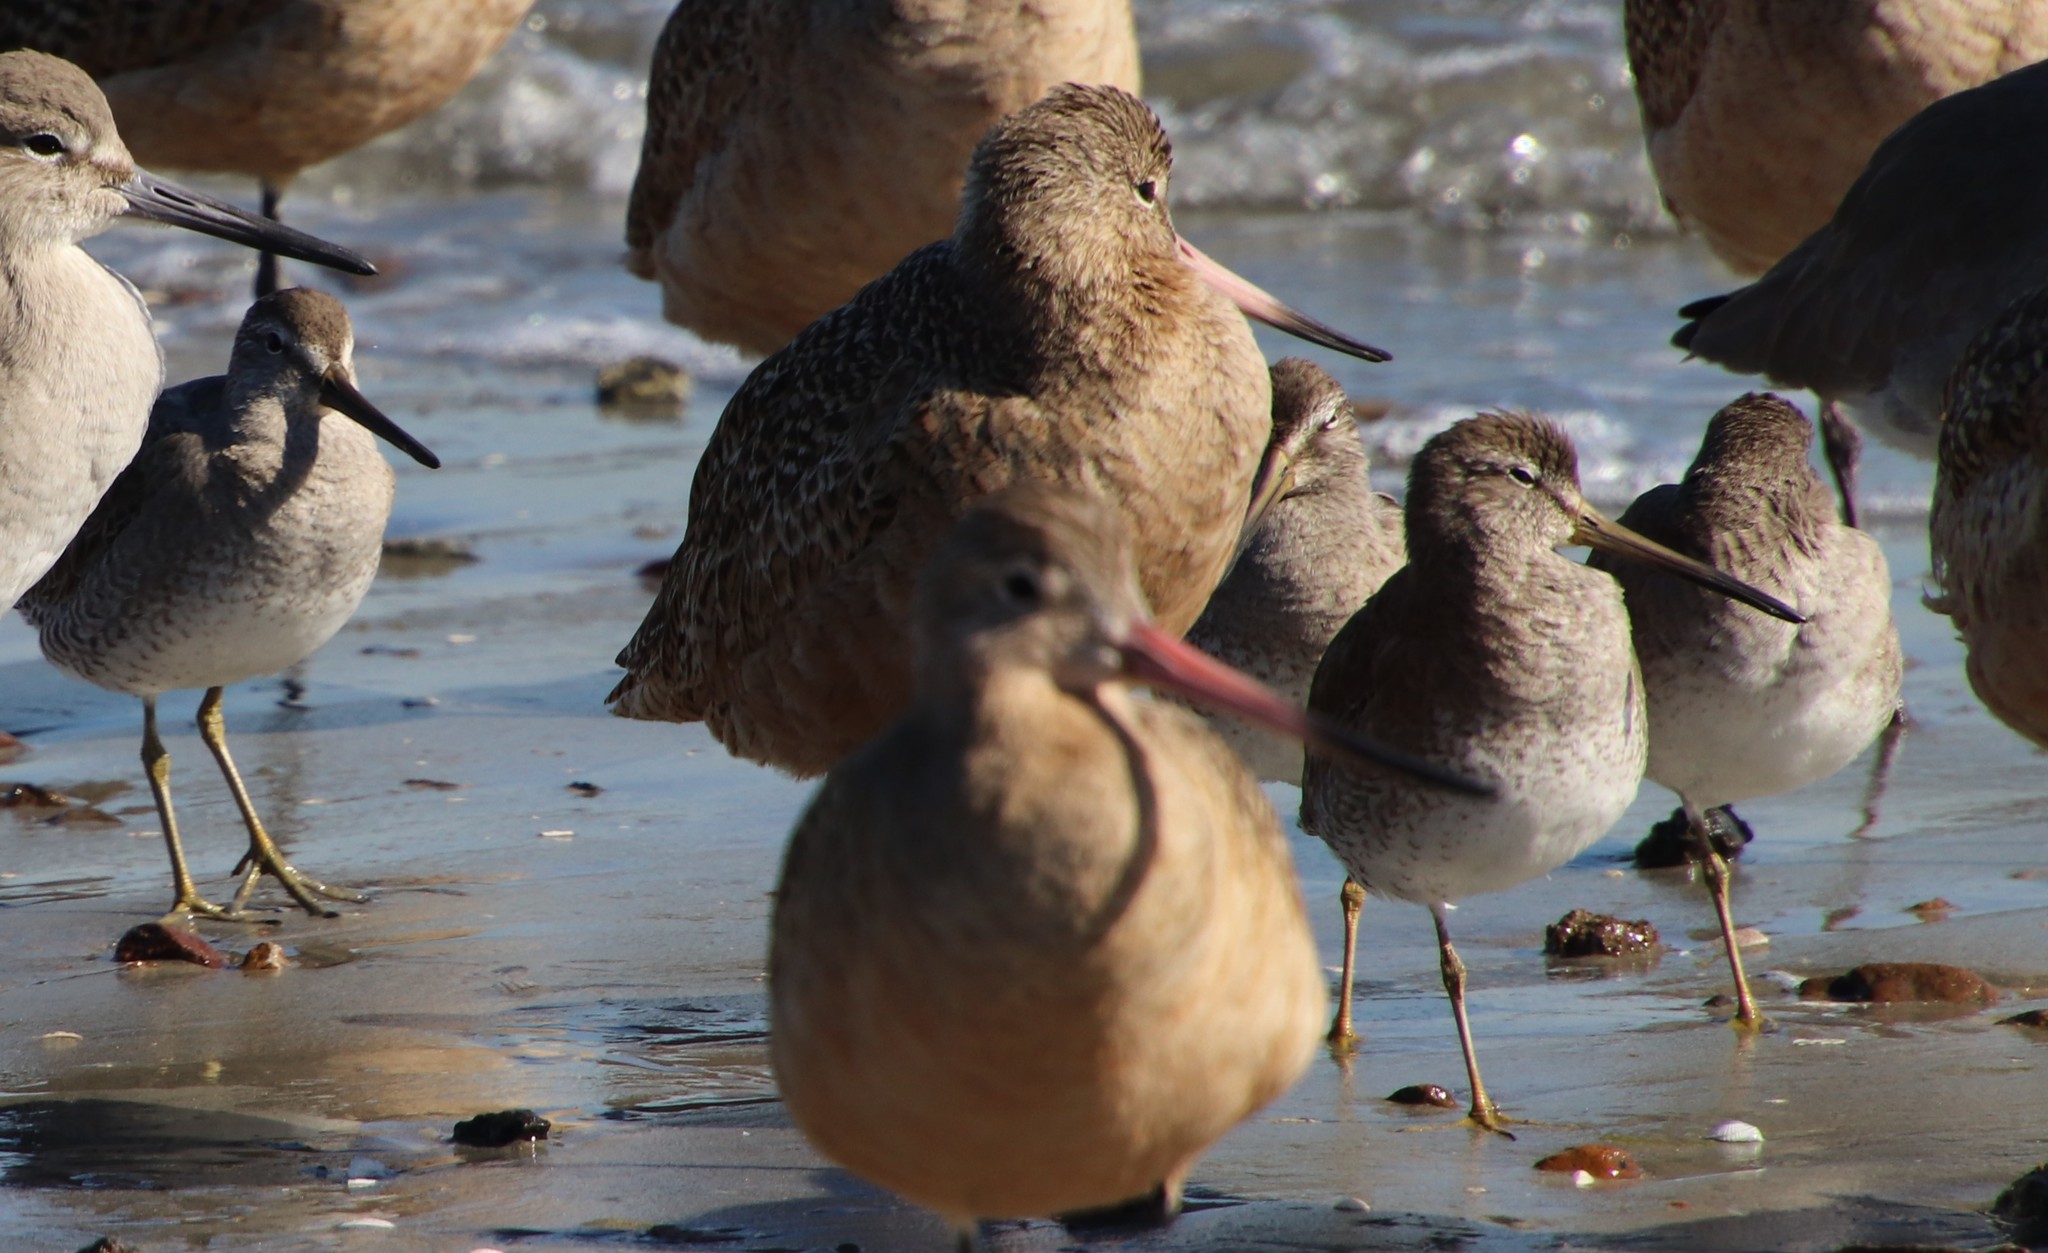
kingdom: Animalia
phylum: Chordata
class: Aves
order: Charadriiformes
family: Scolopacidae
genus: Limnodromus
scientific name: Limnodromus
